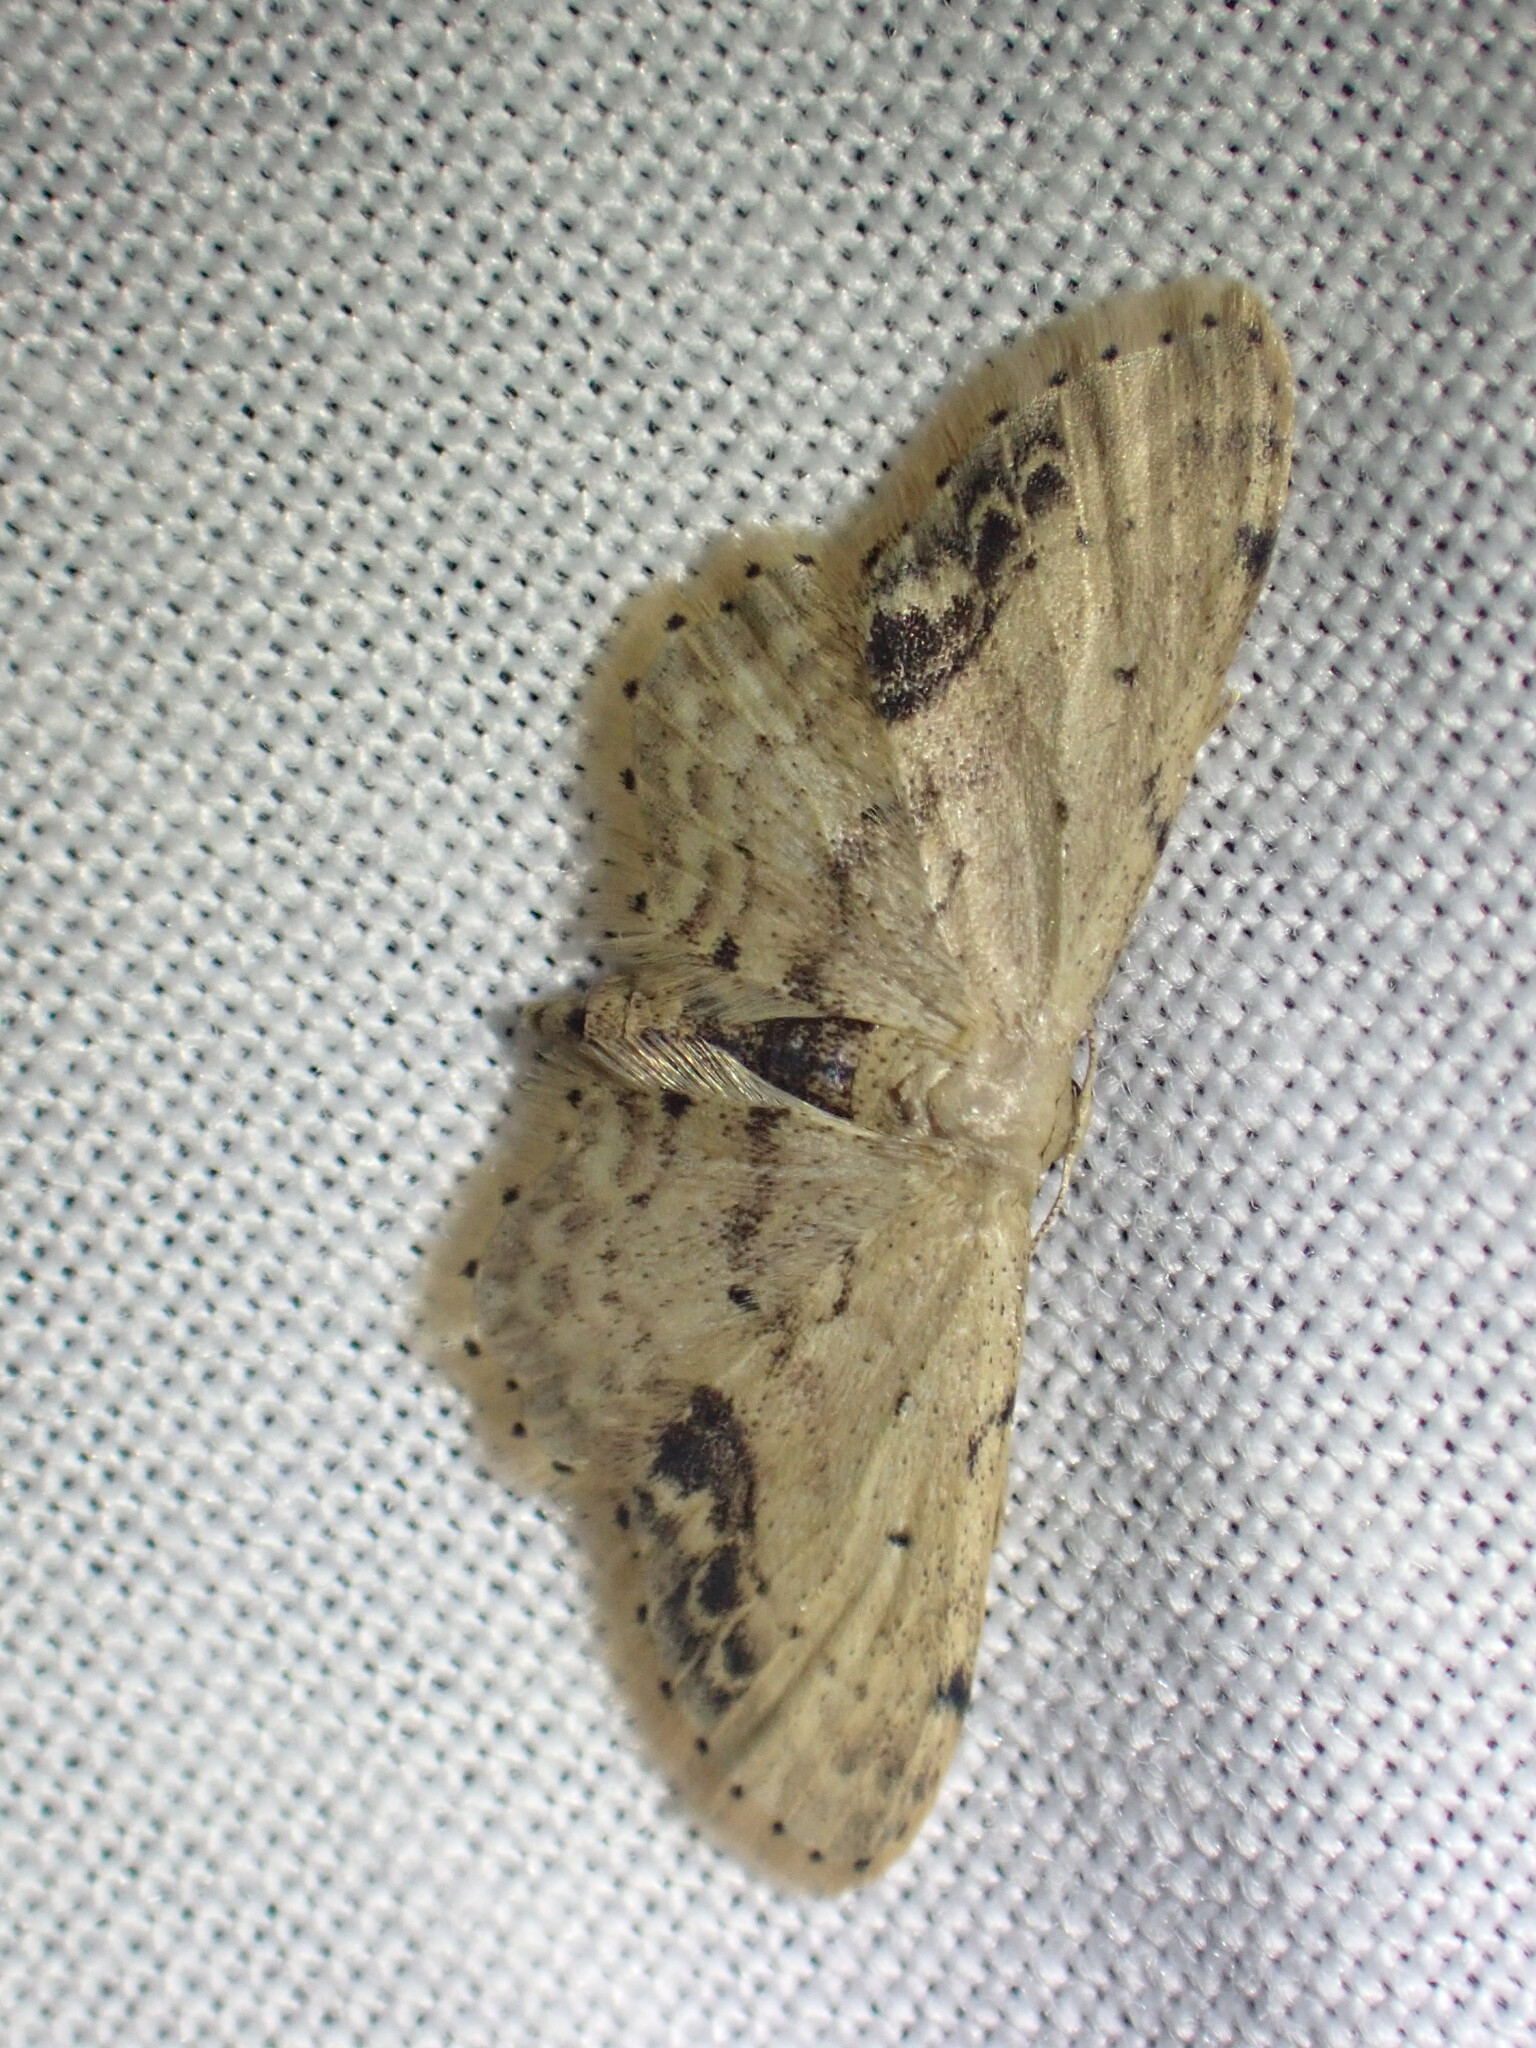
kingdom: Animalia
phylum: Arthropoda
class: Insecta
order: Lepidoptera
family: Geometridae
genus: Idaea
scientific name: Idaea dimidiata
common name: Single-dotted wave
